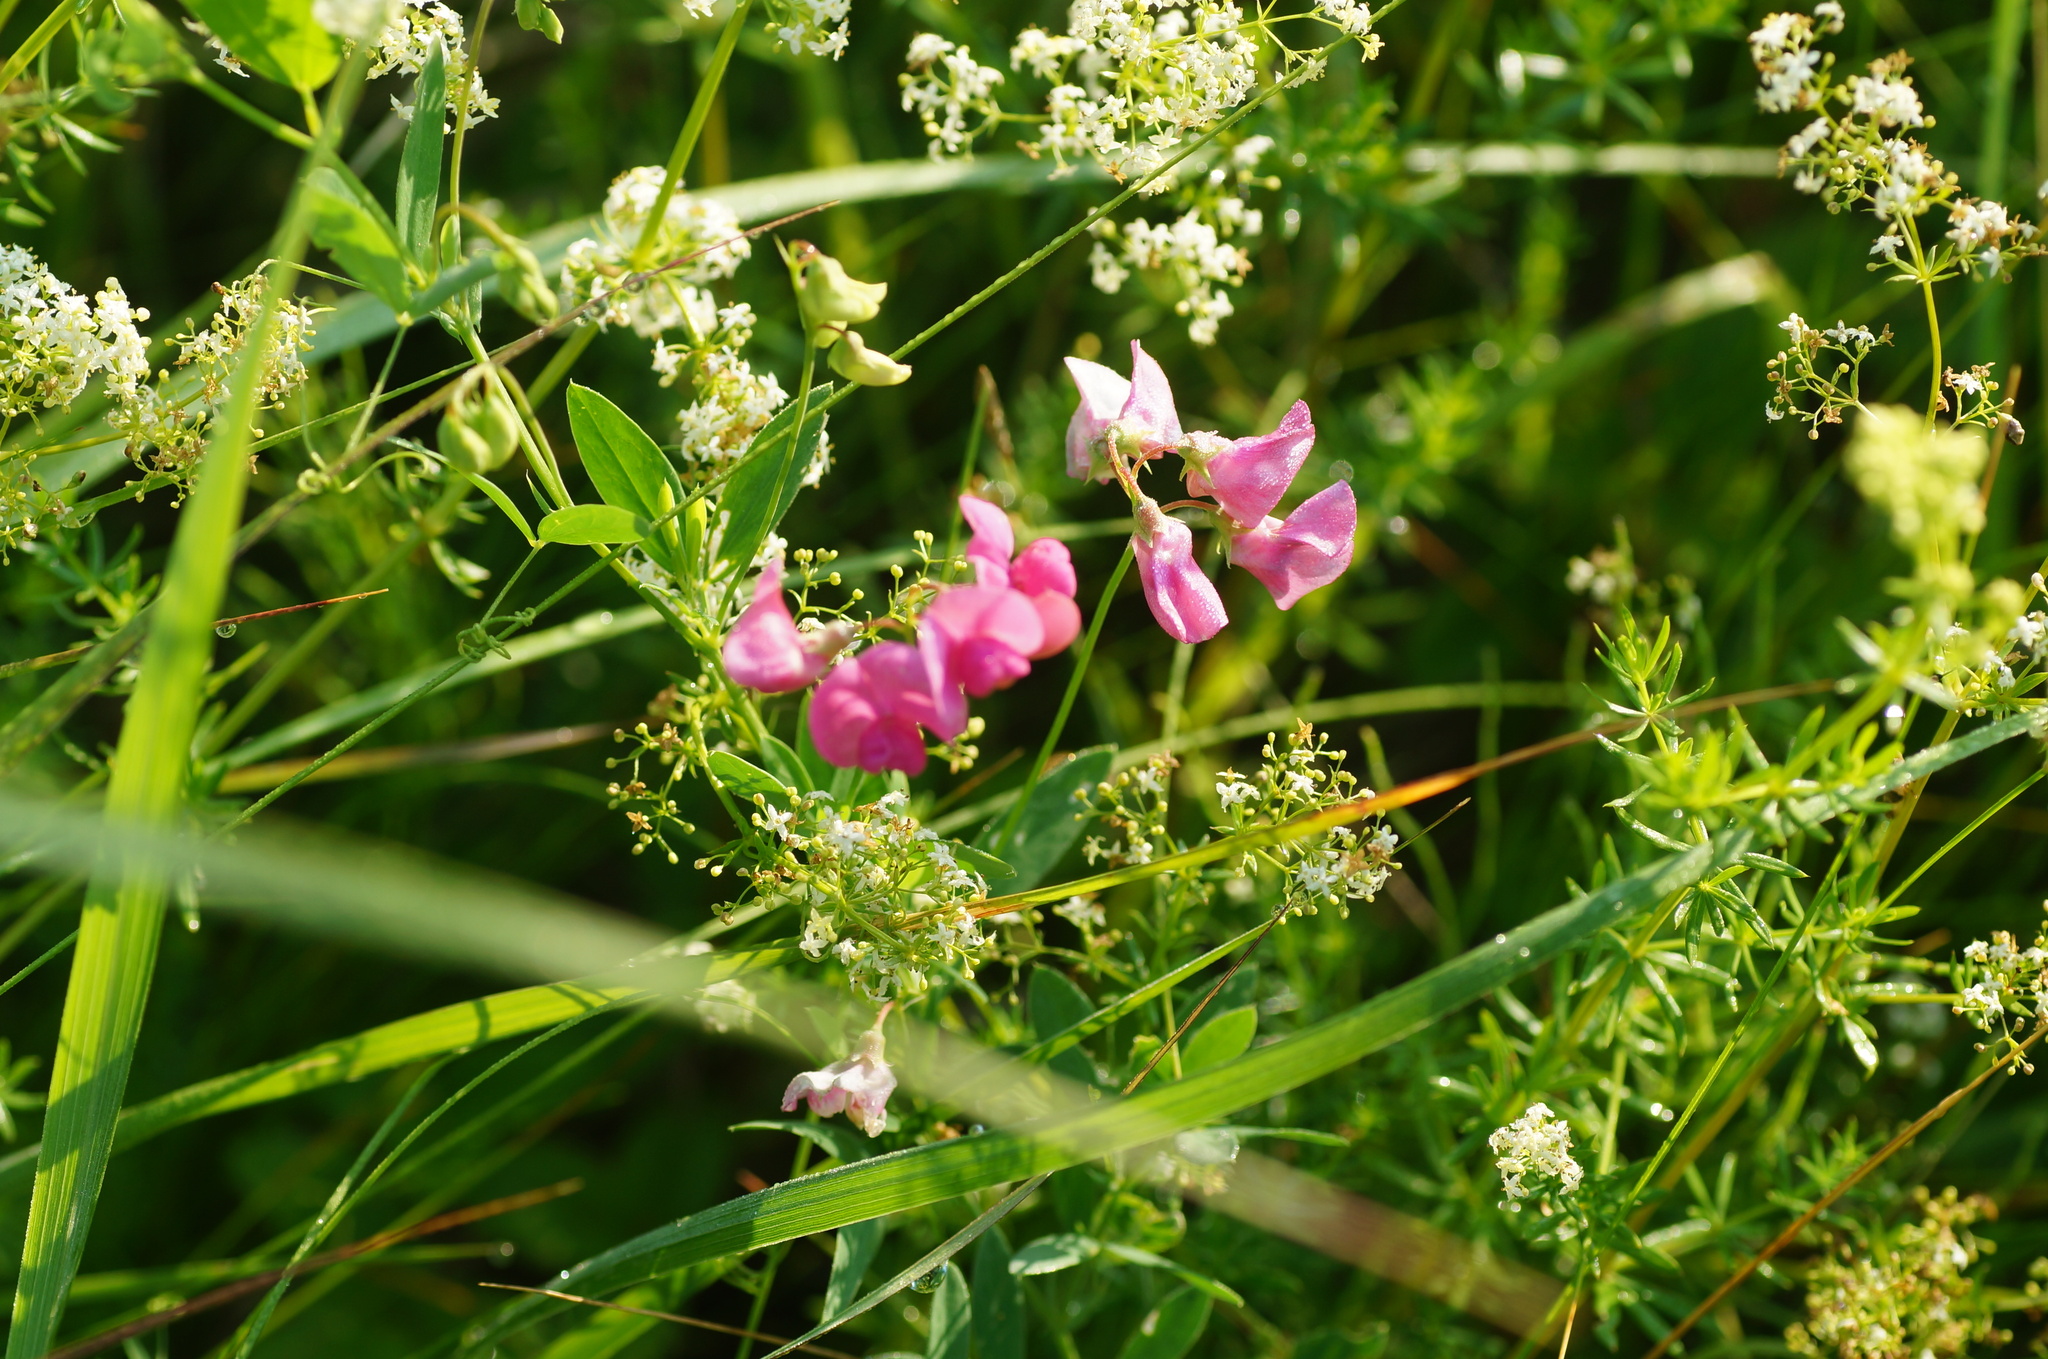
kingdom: Plantae
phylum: Tracheophyta
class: Magnoliopsida
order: Fabales
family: Fabaceae
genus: Lathyrus
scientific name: Lathyrus tuberosus
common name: Tuberous pea
